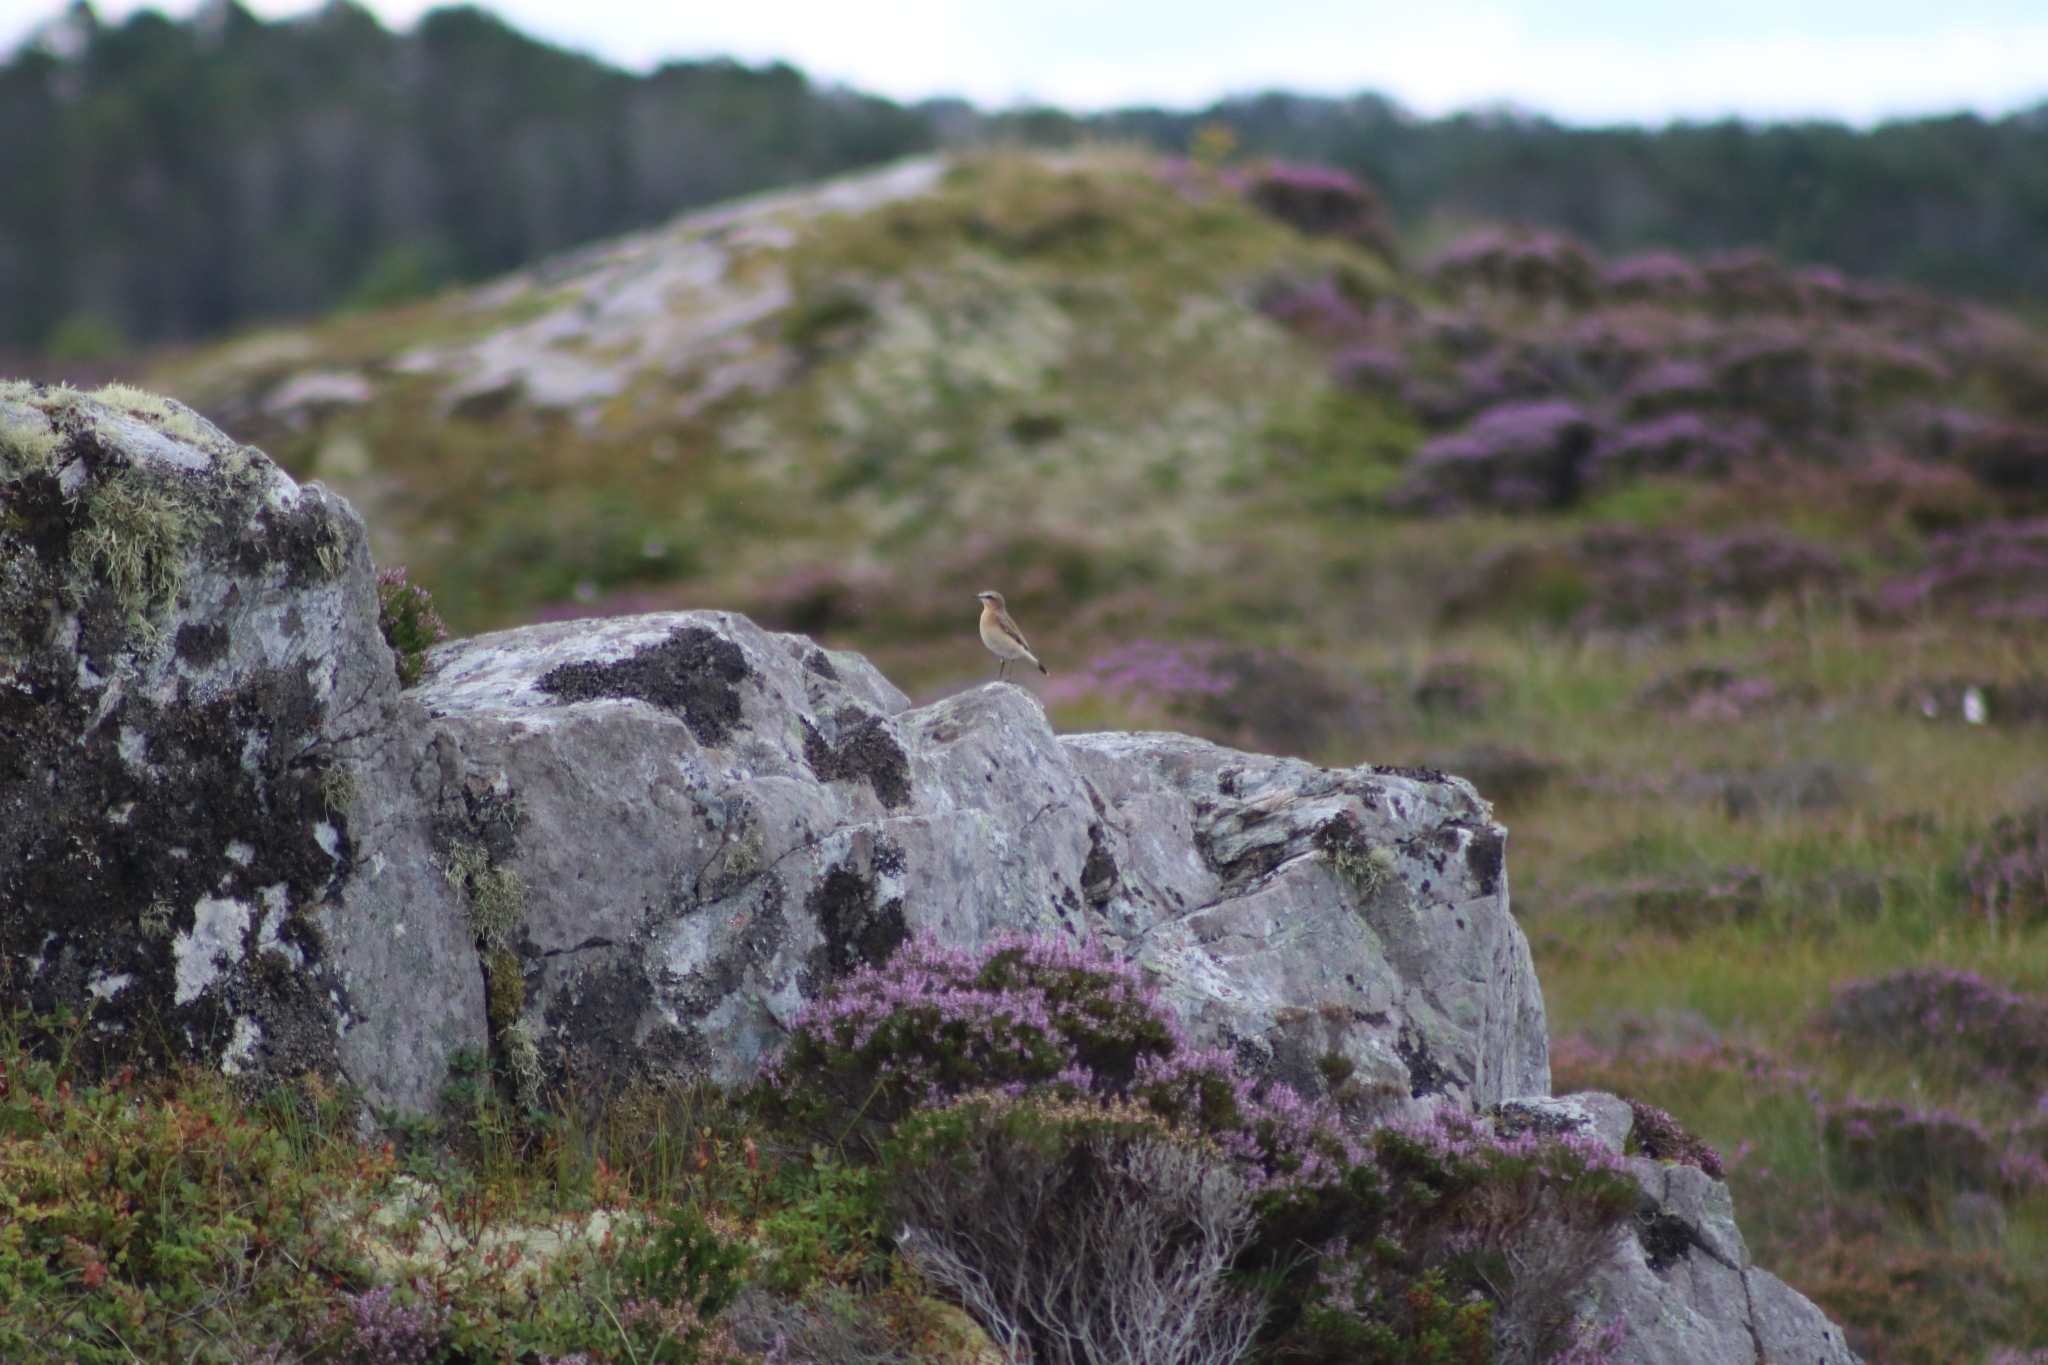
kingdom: Animalia
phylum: Chordata
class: Aves
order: Passeriformes
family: Muscicapidae
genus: Oenanthe
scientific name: Oenanthe oenanthe
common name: Northern wheatear
